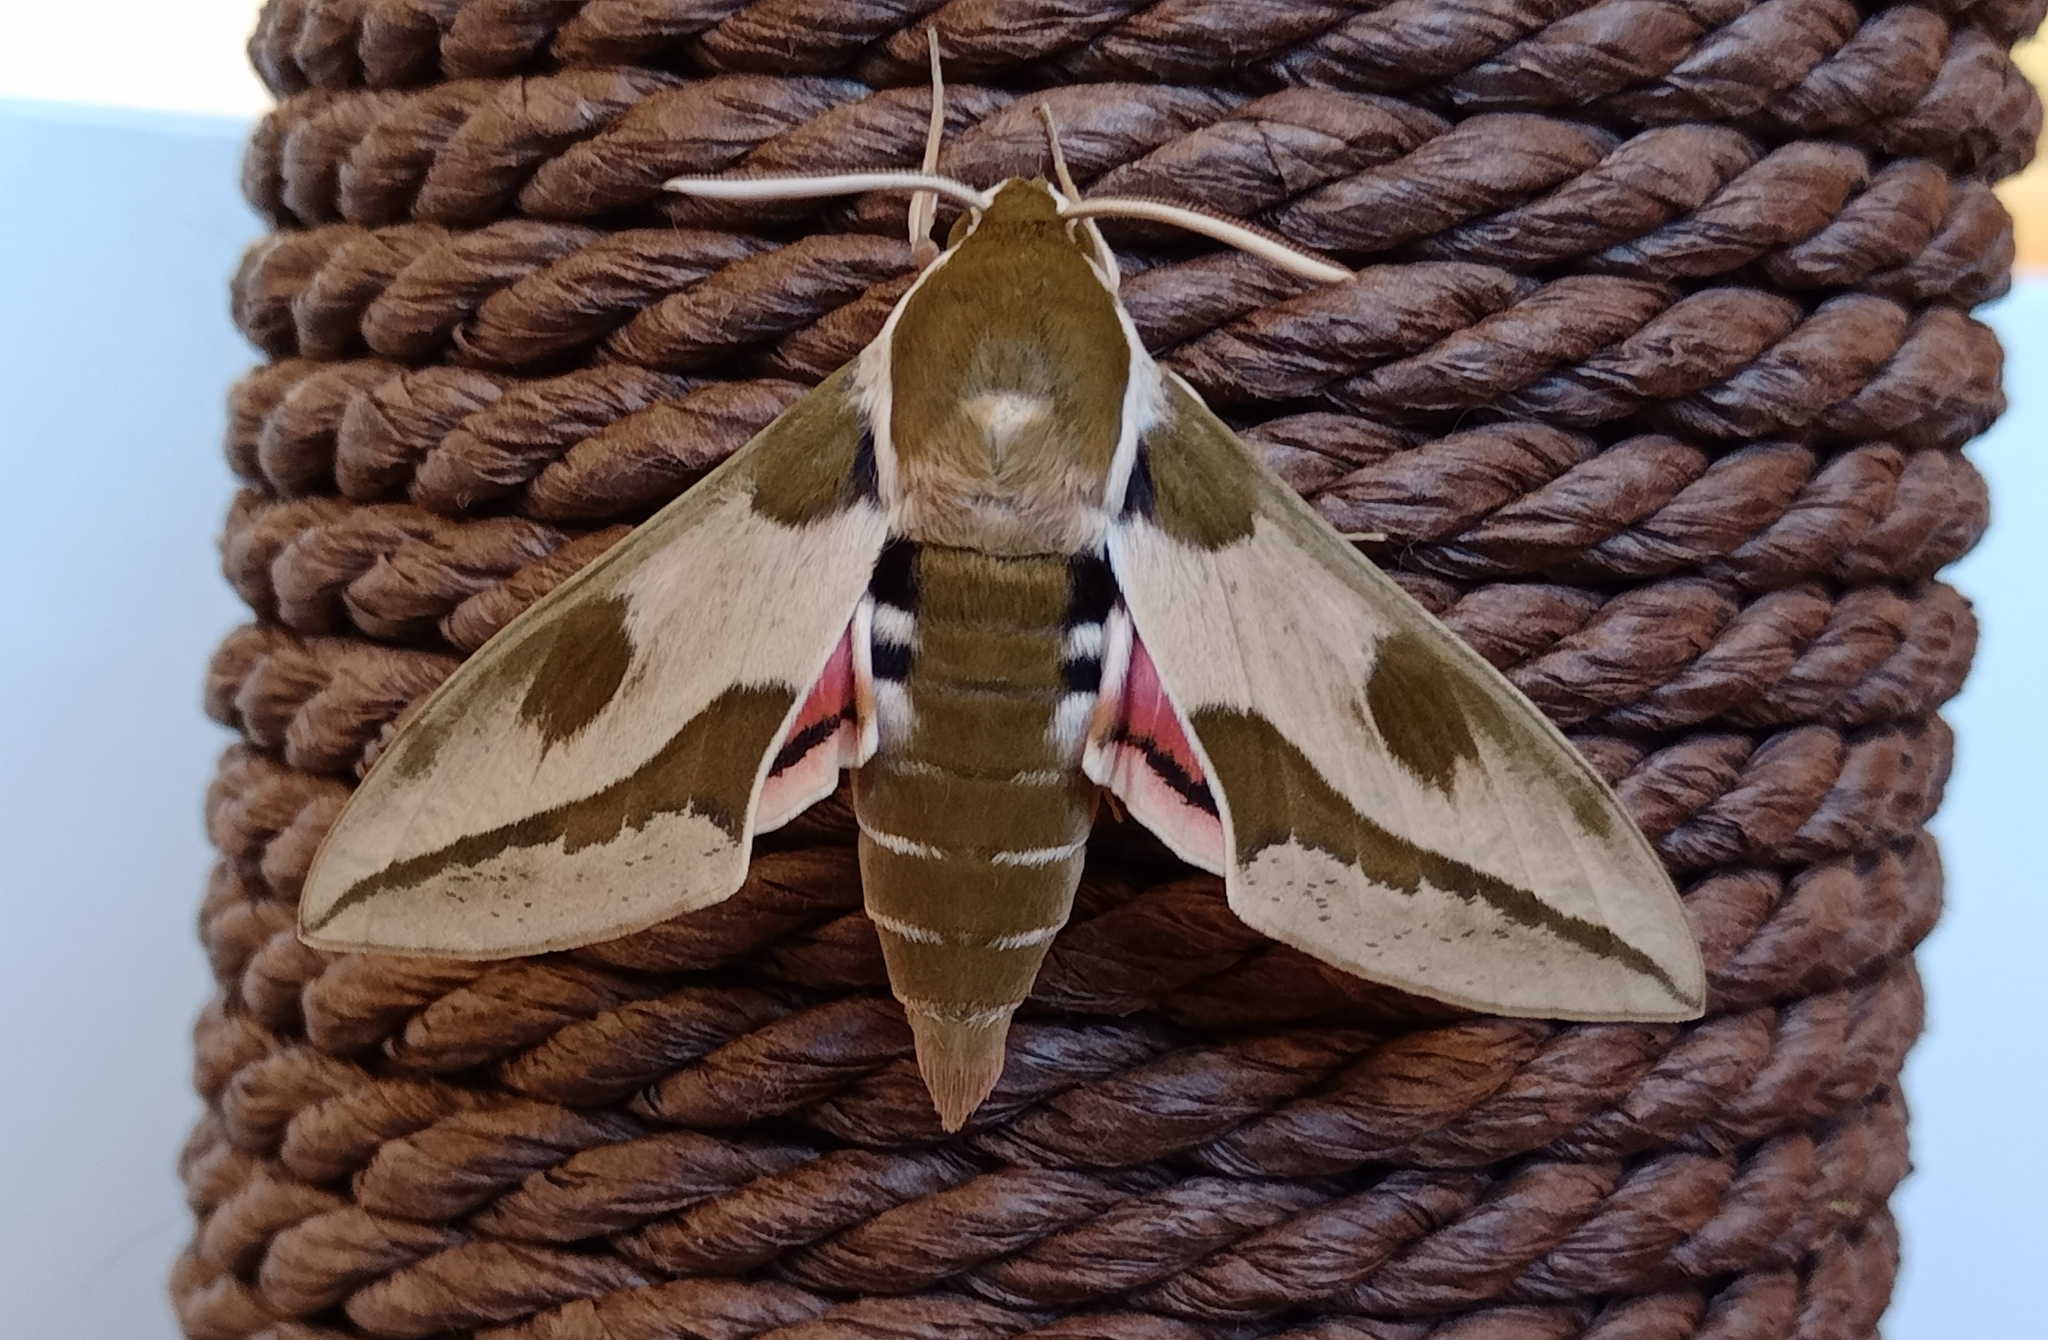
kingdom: Animalia
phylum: Arthropoda
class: Insecta
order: Lepidoptera
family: Sphingidae
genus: Hyles
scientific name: Hyles euphorbiae
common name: Spurge hawk-moth
